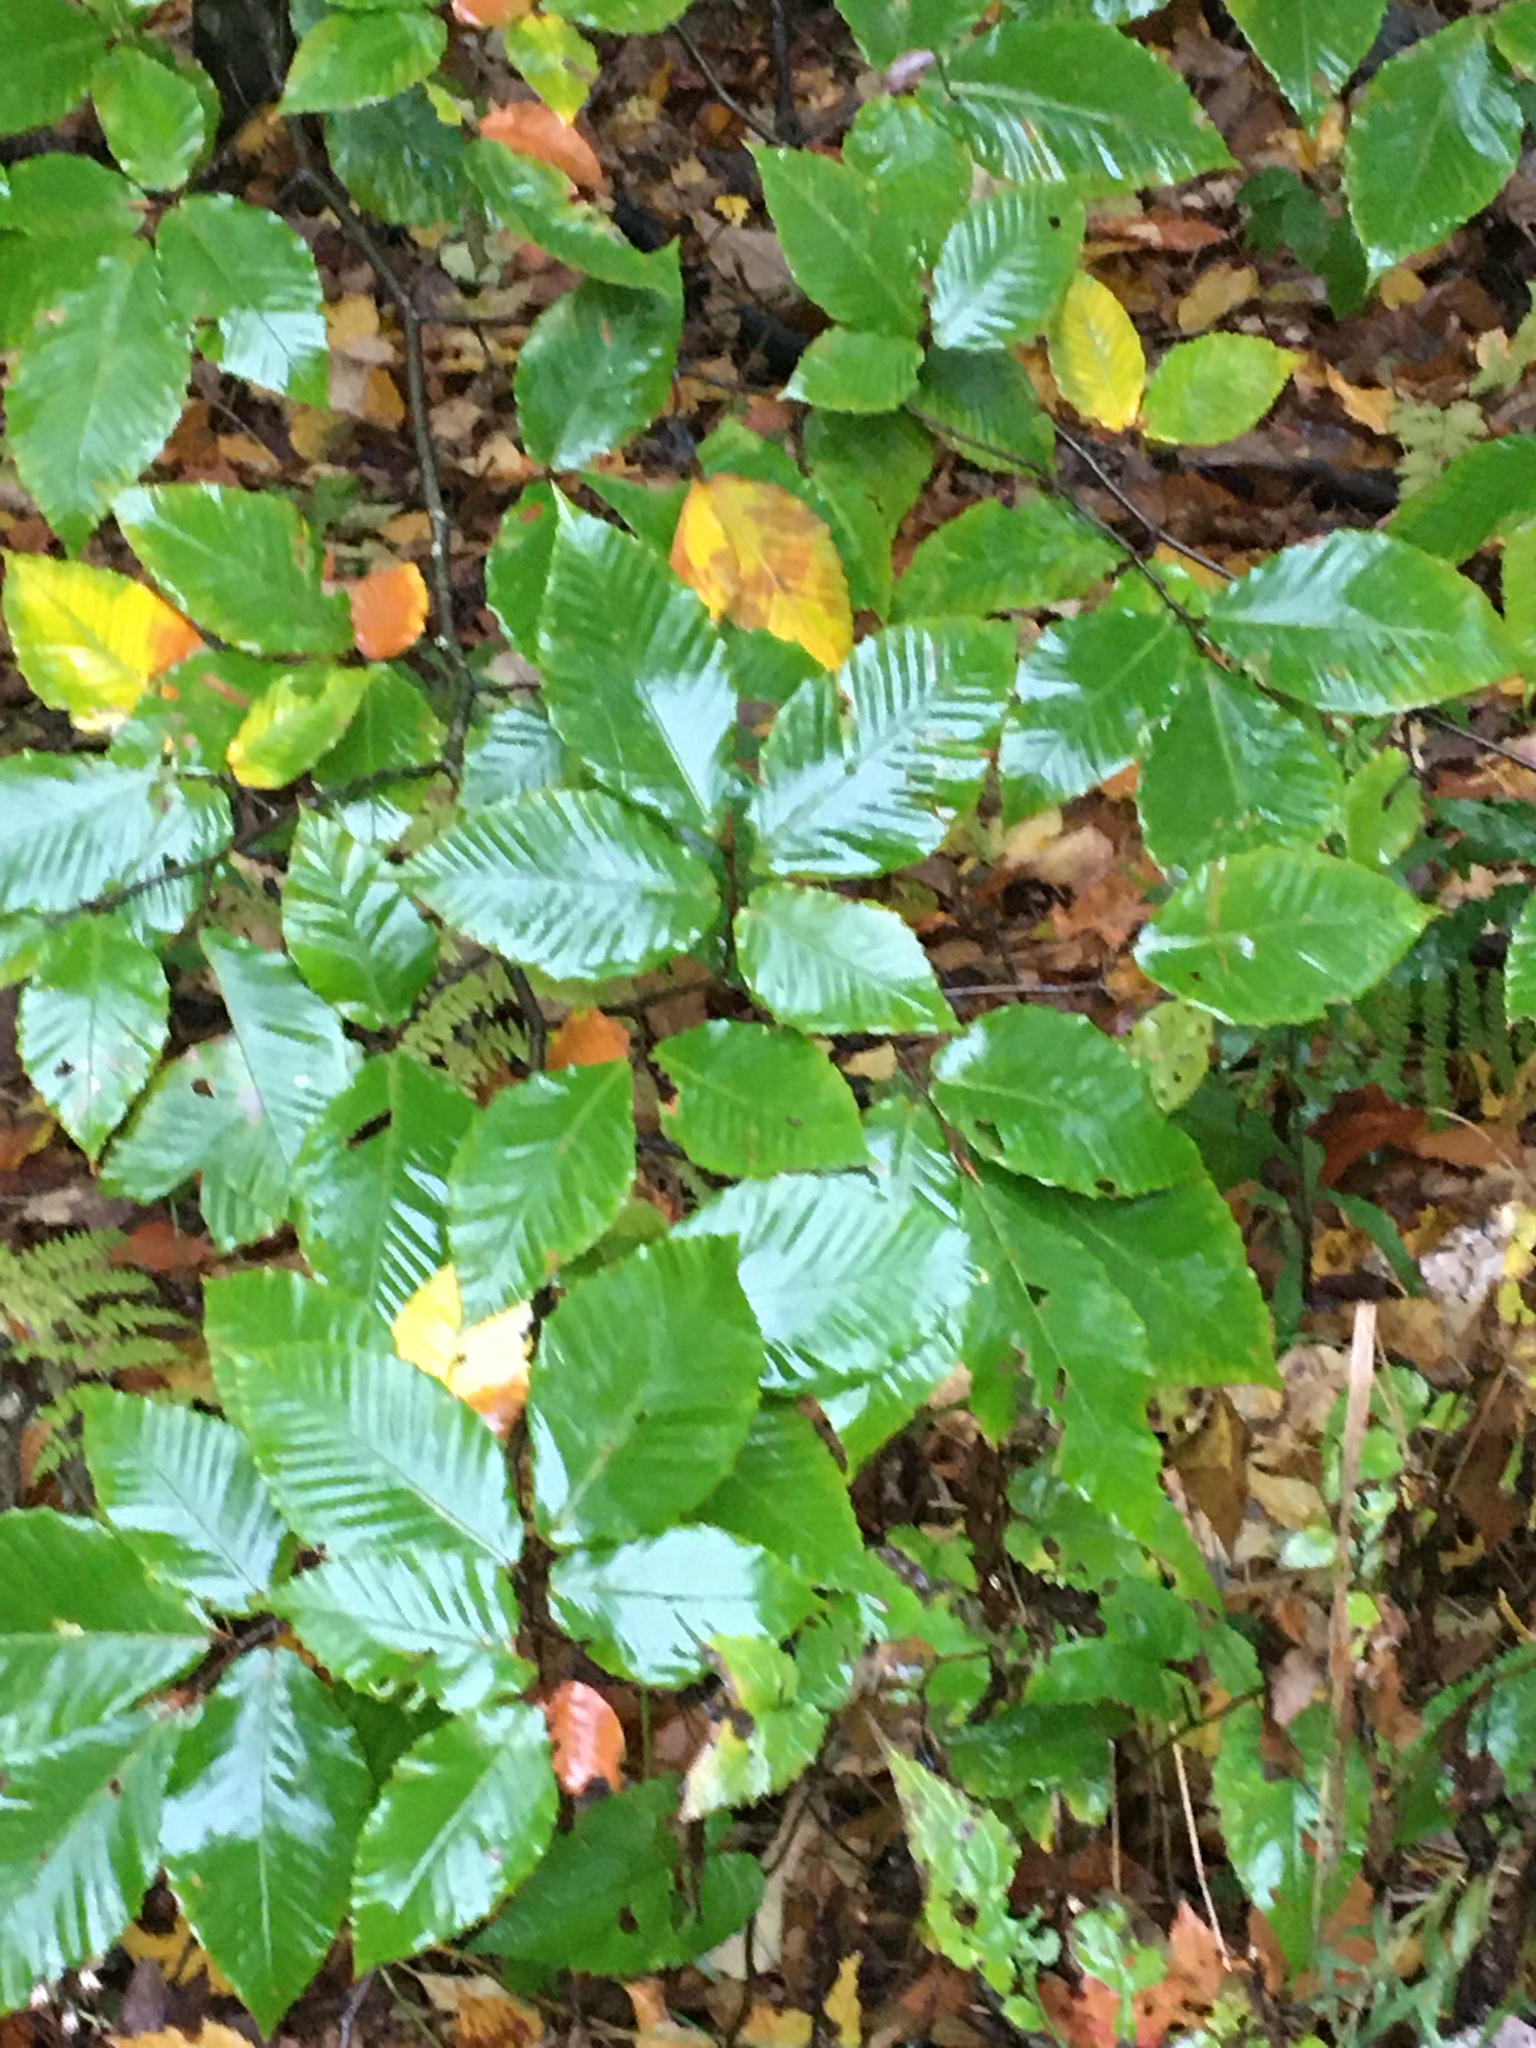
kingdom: Plantae
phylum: Tracheophyta
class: Magnoliopsida
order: Fagales
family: Fagaceae
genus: Fagus
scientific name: Fagus grandifolia
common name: American beech
